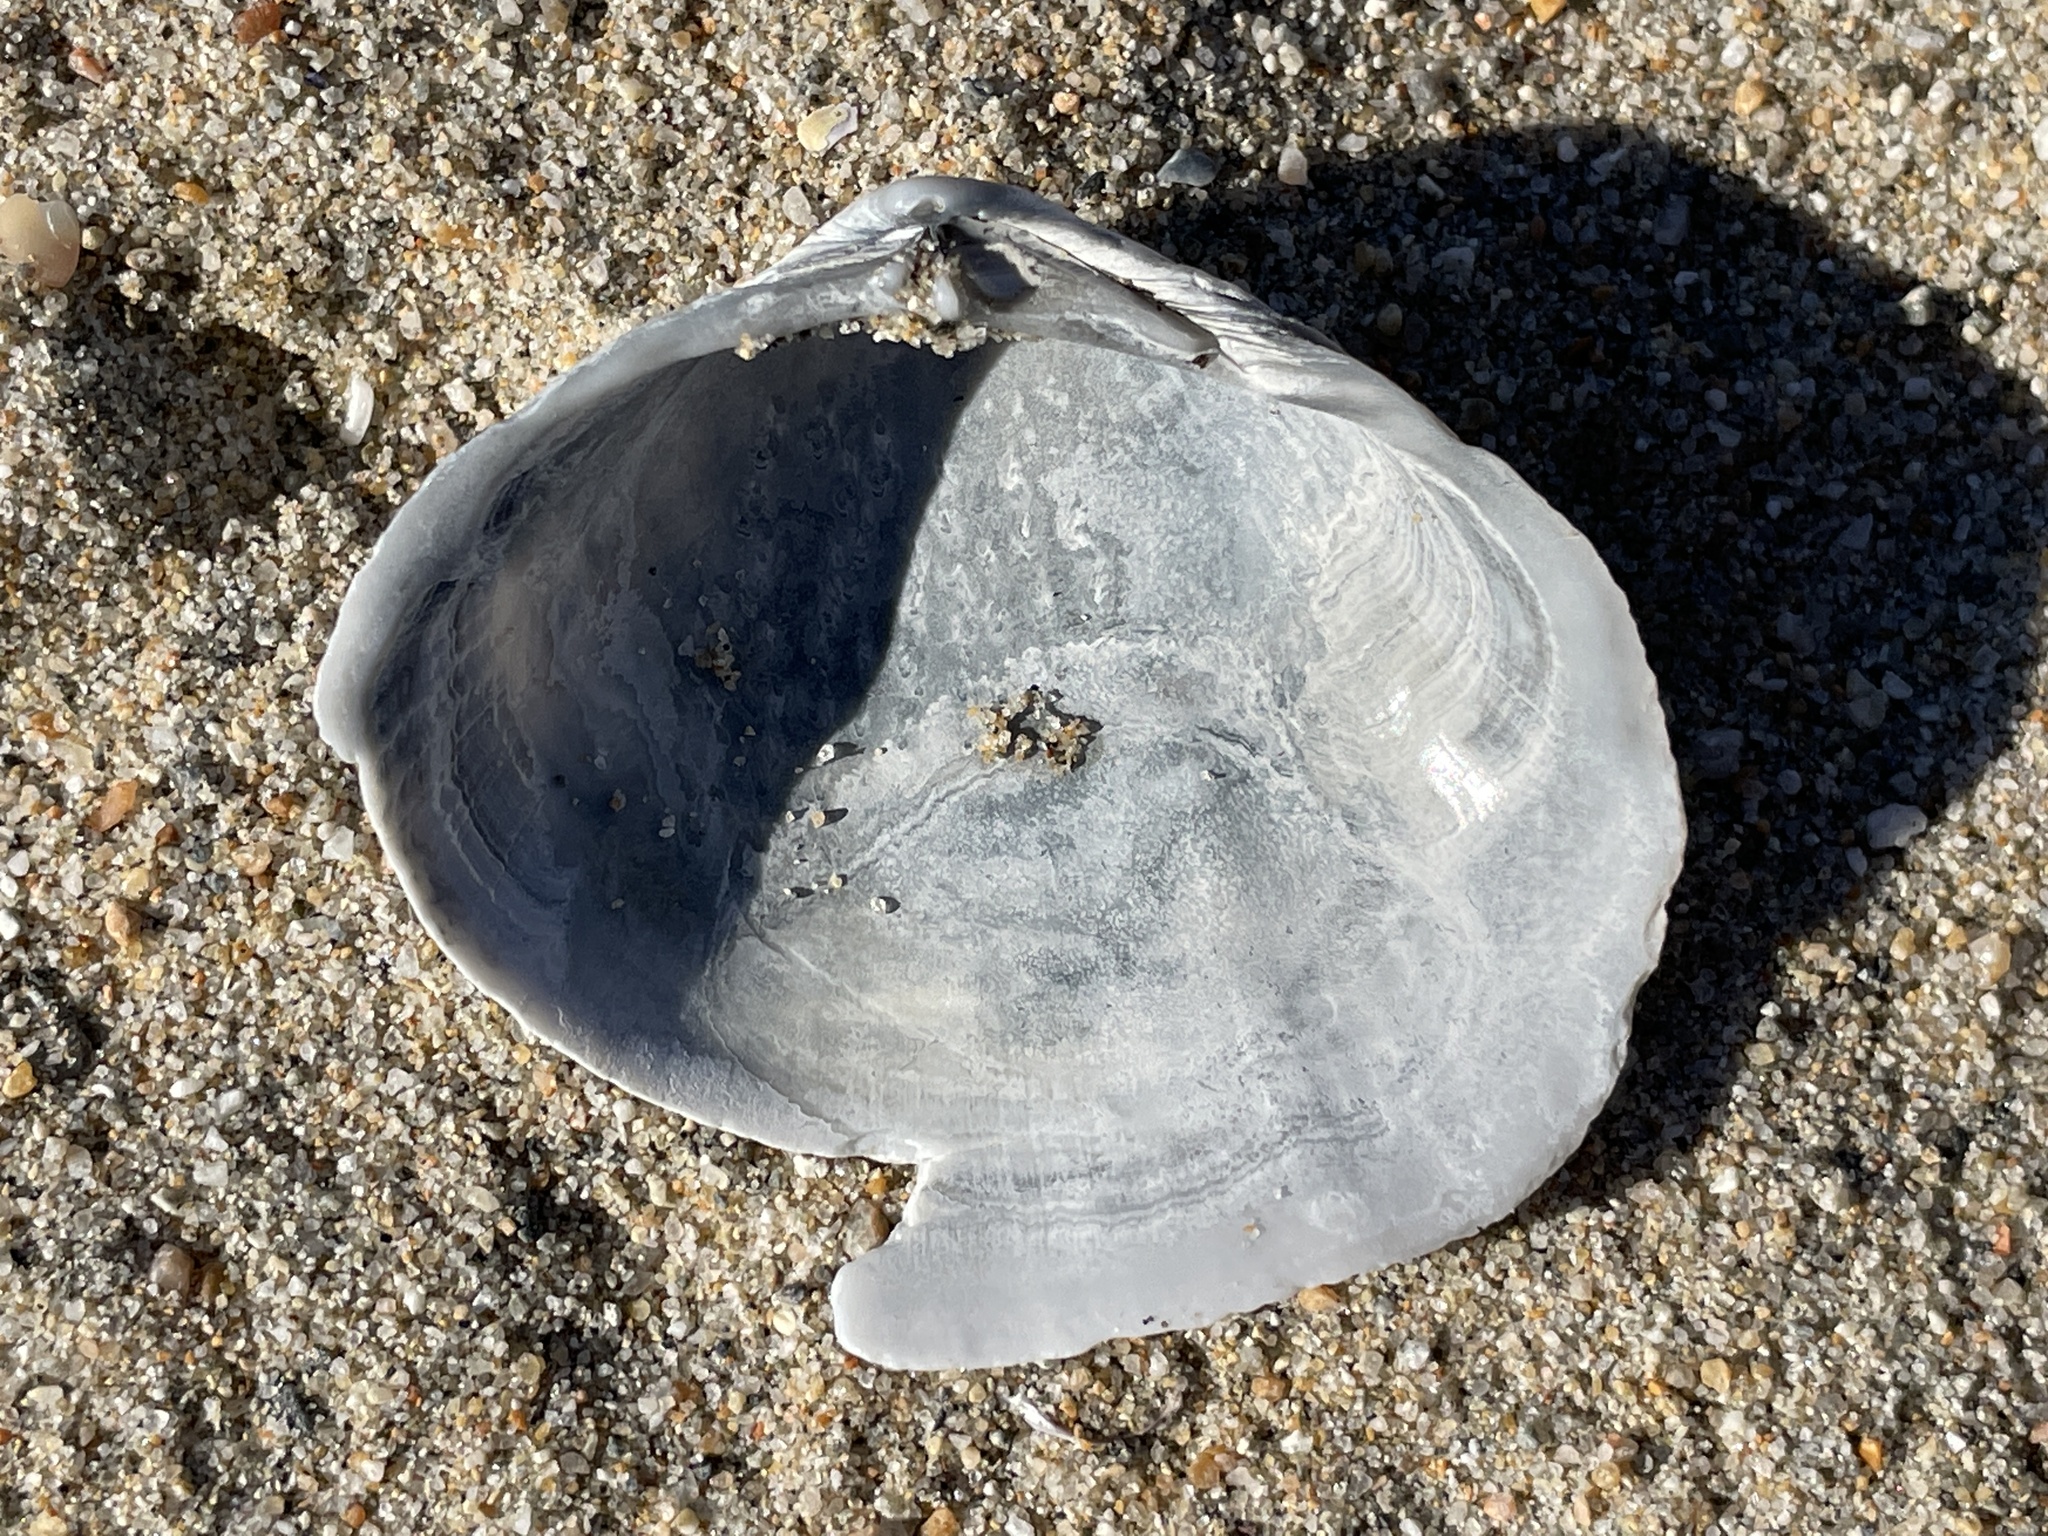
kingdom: Animalia
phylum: Mollusca
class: Bivalvia
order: Cardiida
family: Tellinidae
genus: Leporimetis
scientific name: Leporimetis obesa
